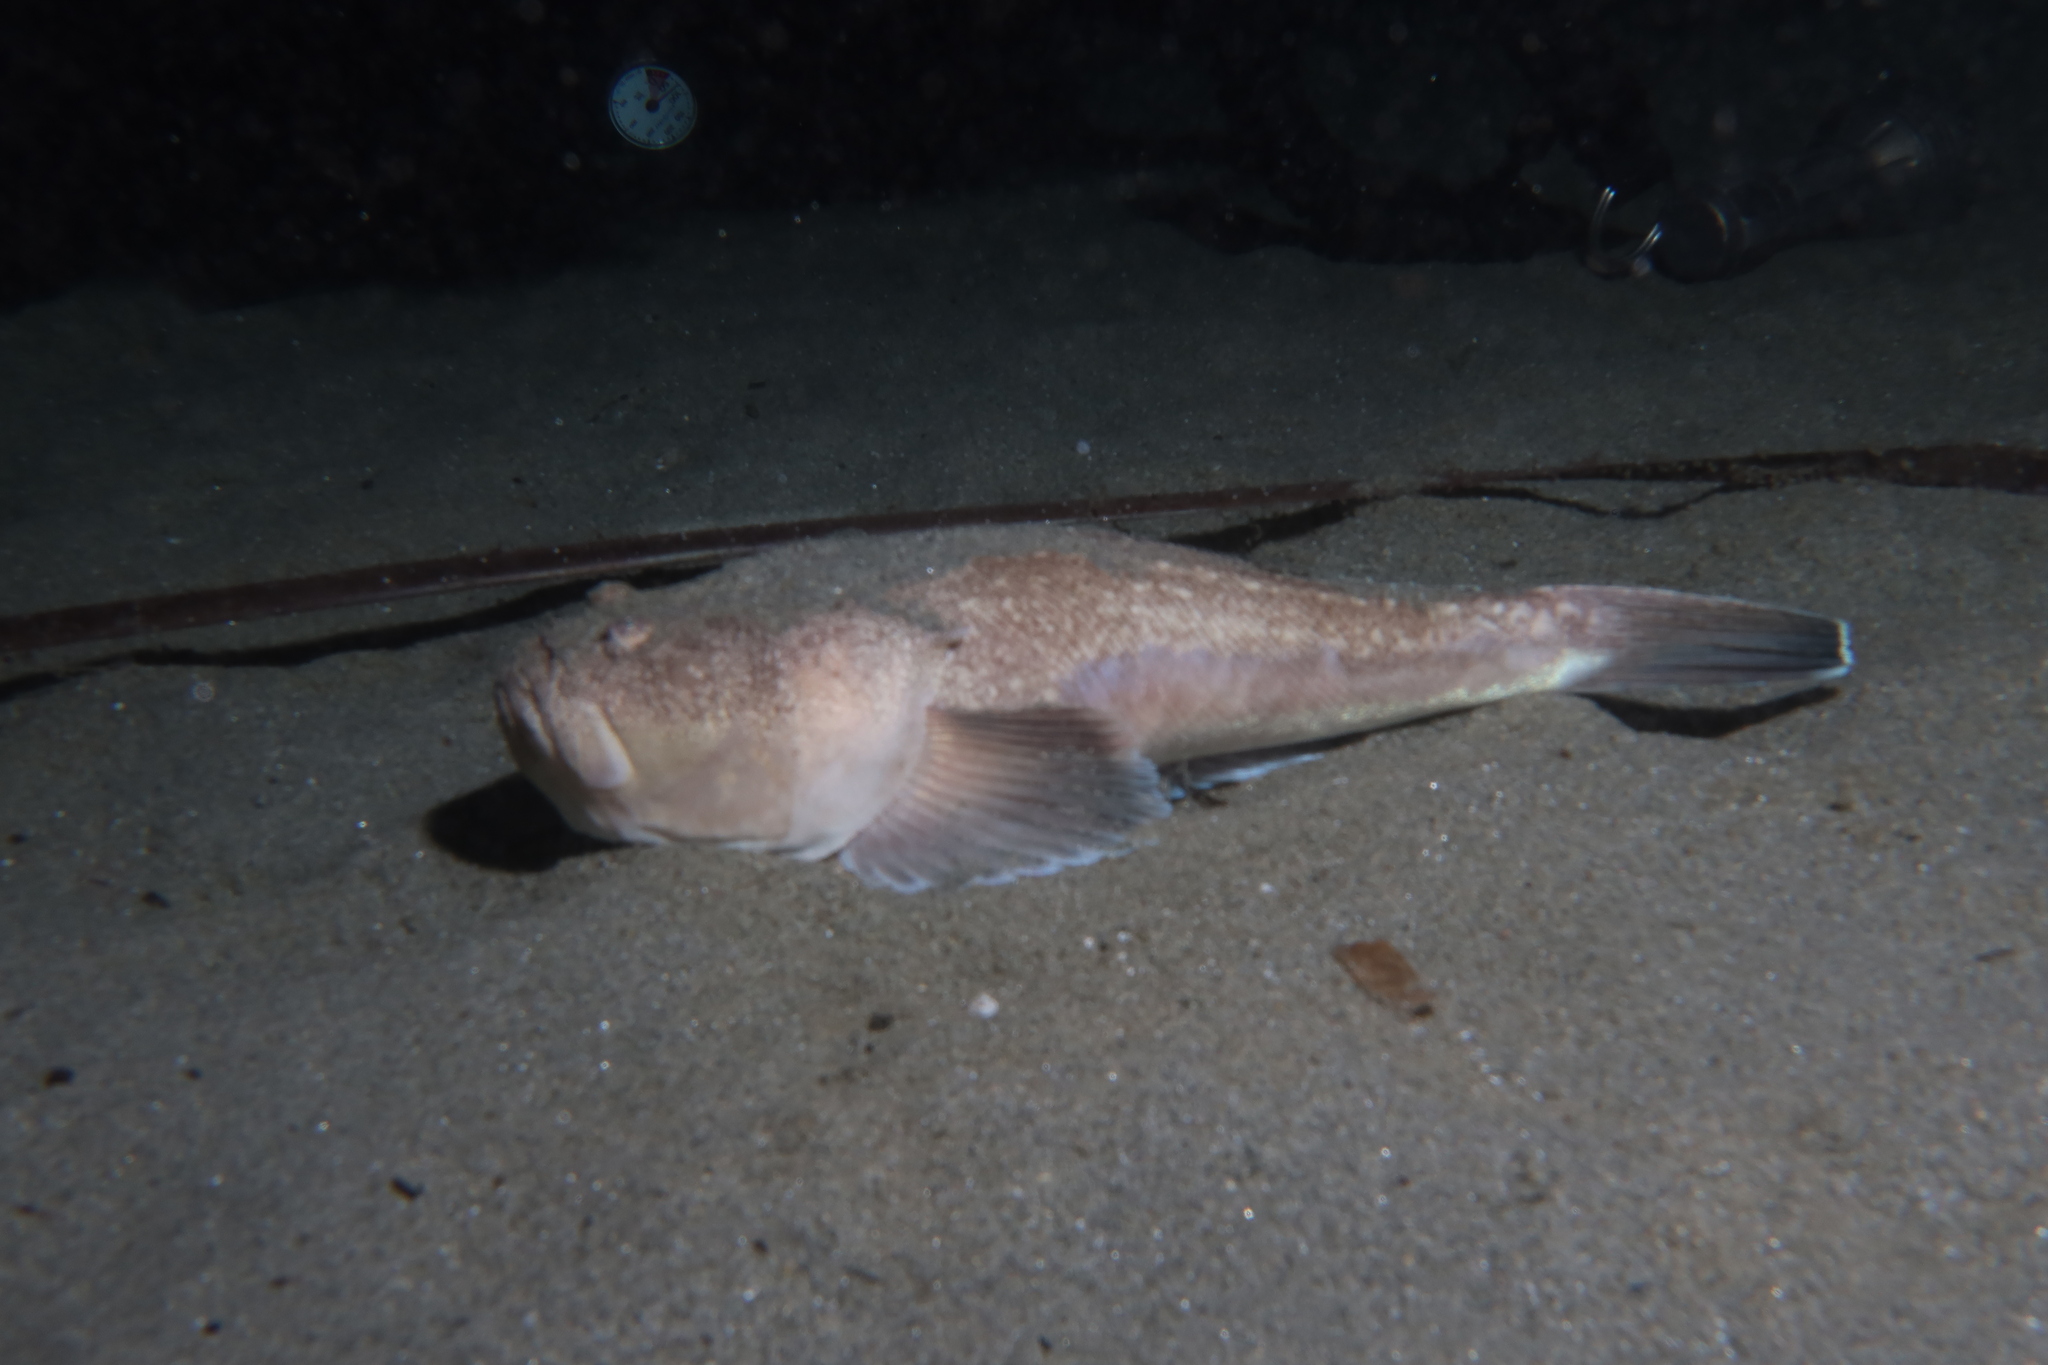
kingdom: Animalia
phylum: Chordata
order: Perciformes
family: Uranoscopidae
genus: Uranoscopus
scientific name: Uranoscopus scaber
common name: Stargazer
